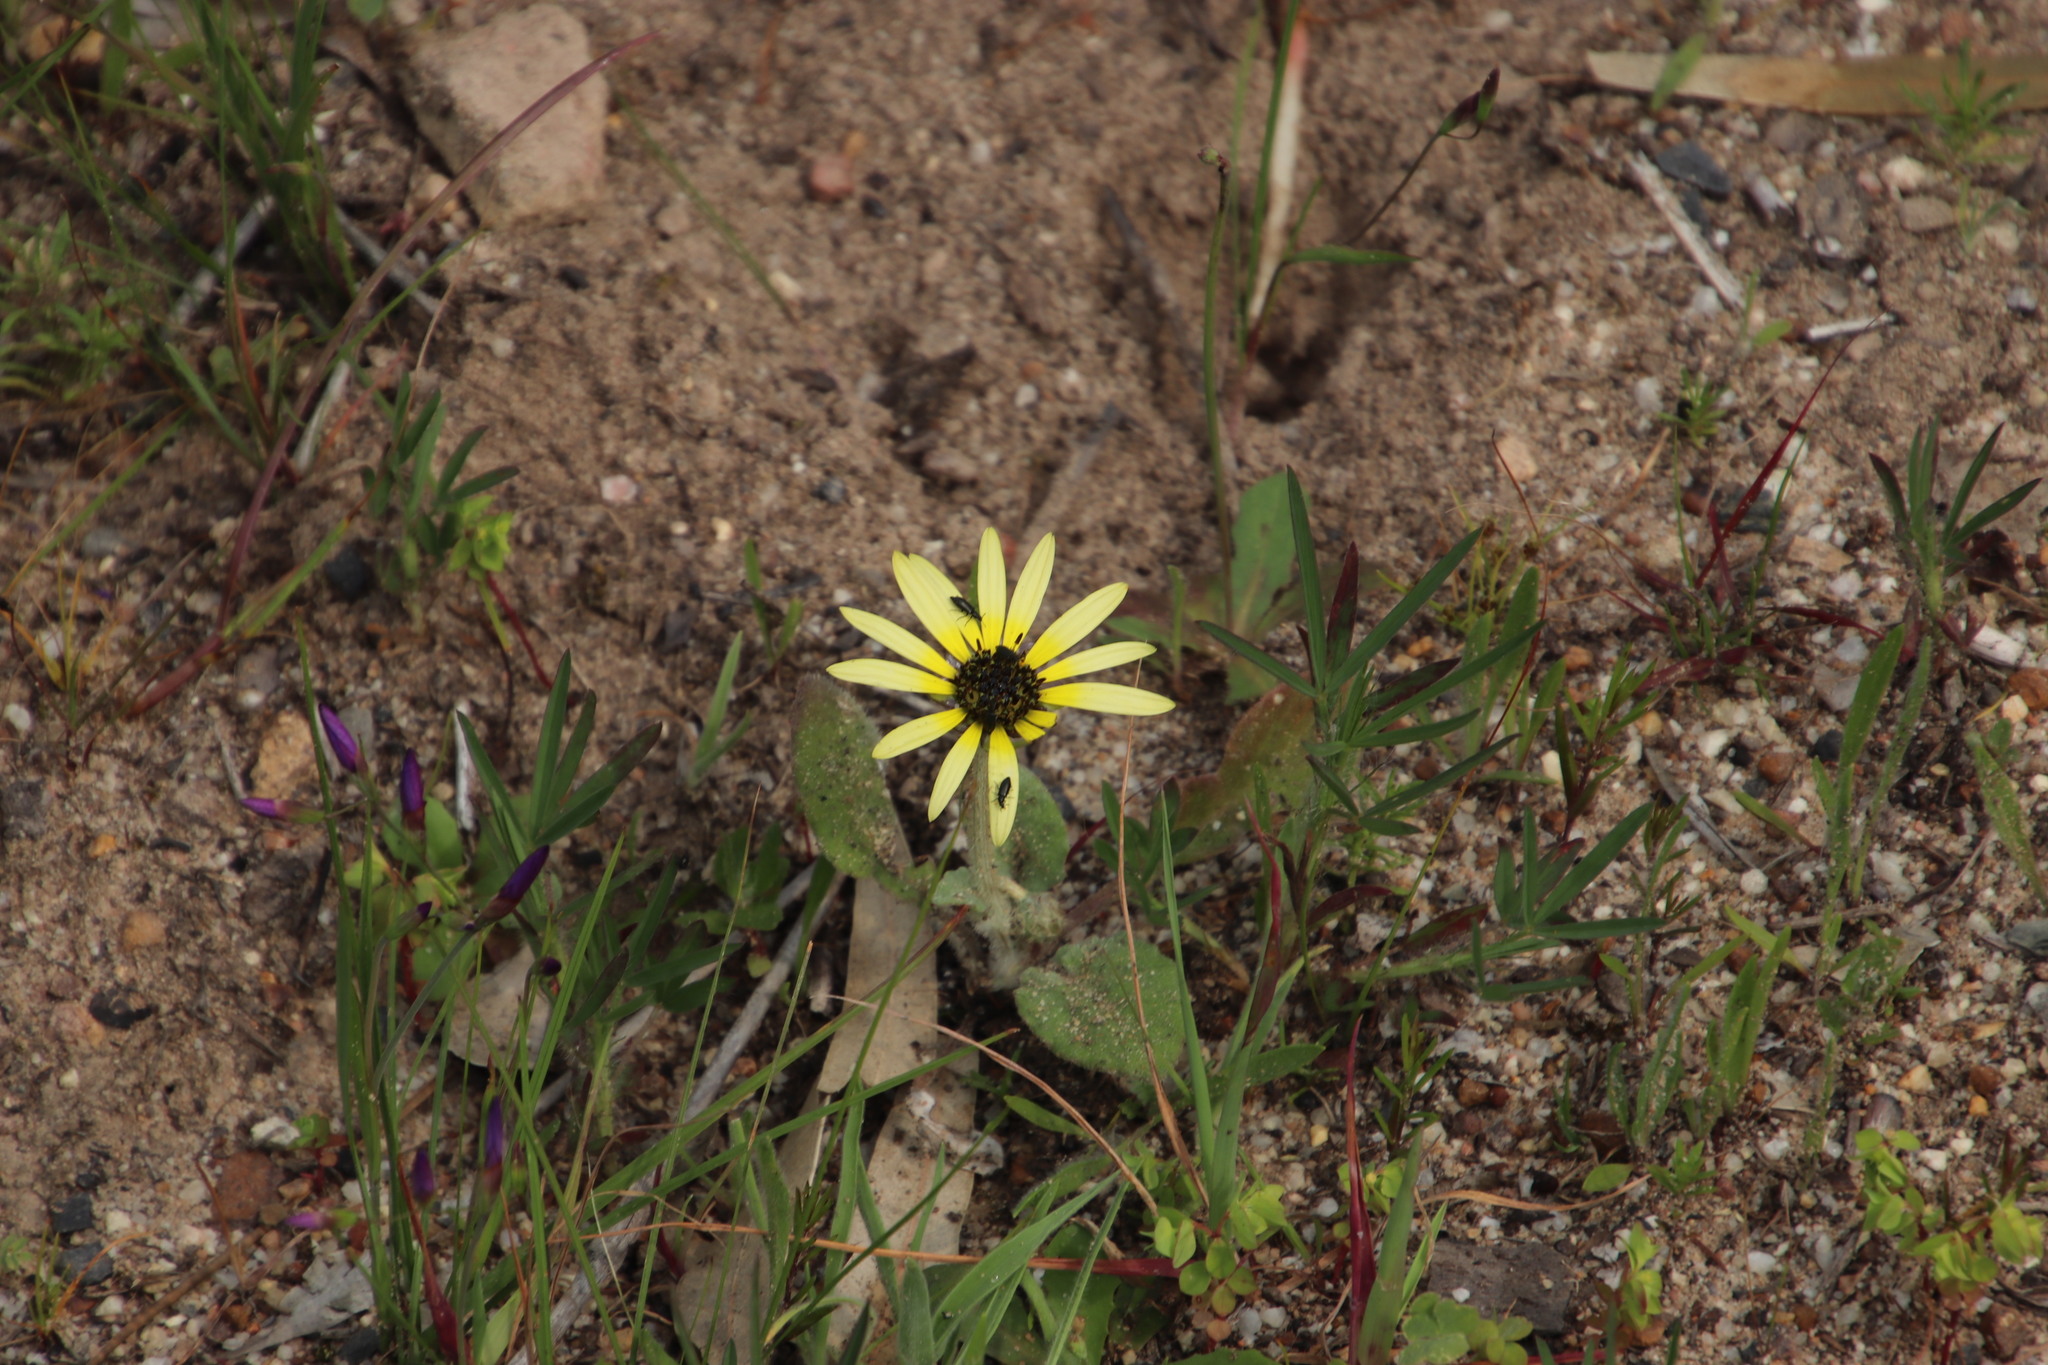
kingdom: Plantae
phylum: Tracheophyta
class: Magnoliopsida
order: Asterales
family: Asteraceae
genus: Arctotheca
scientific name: Arctotheca calendula
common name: Capeweed
